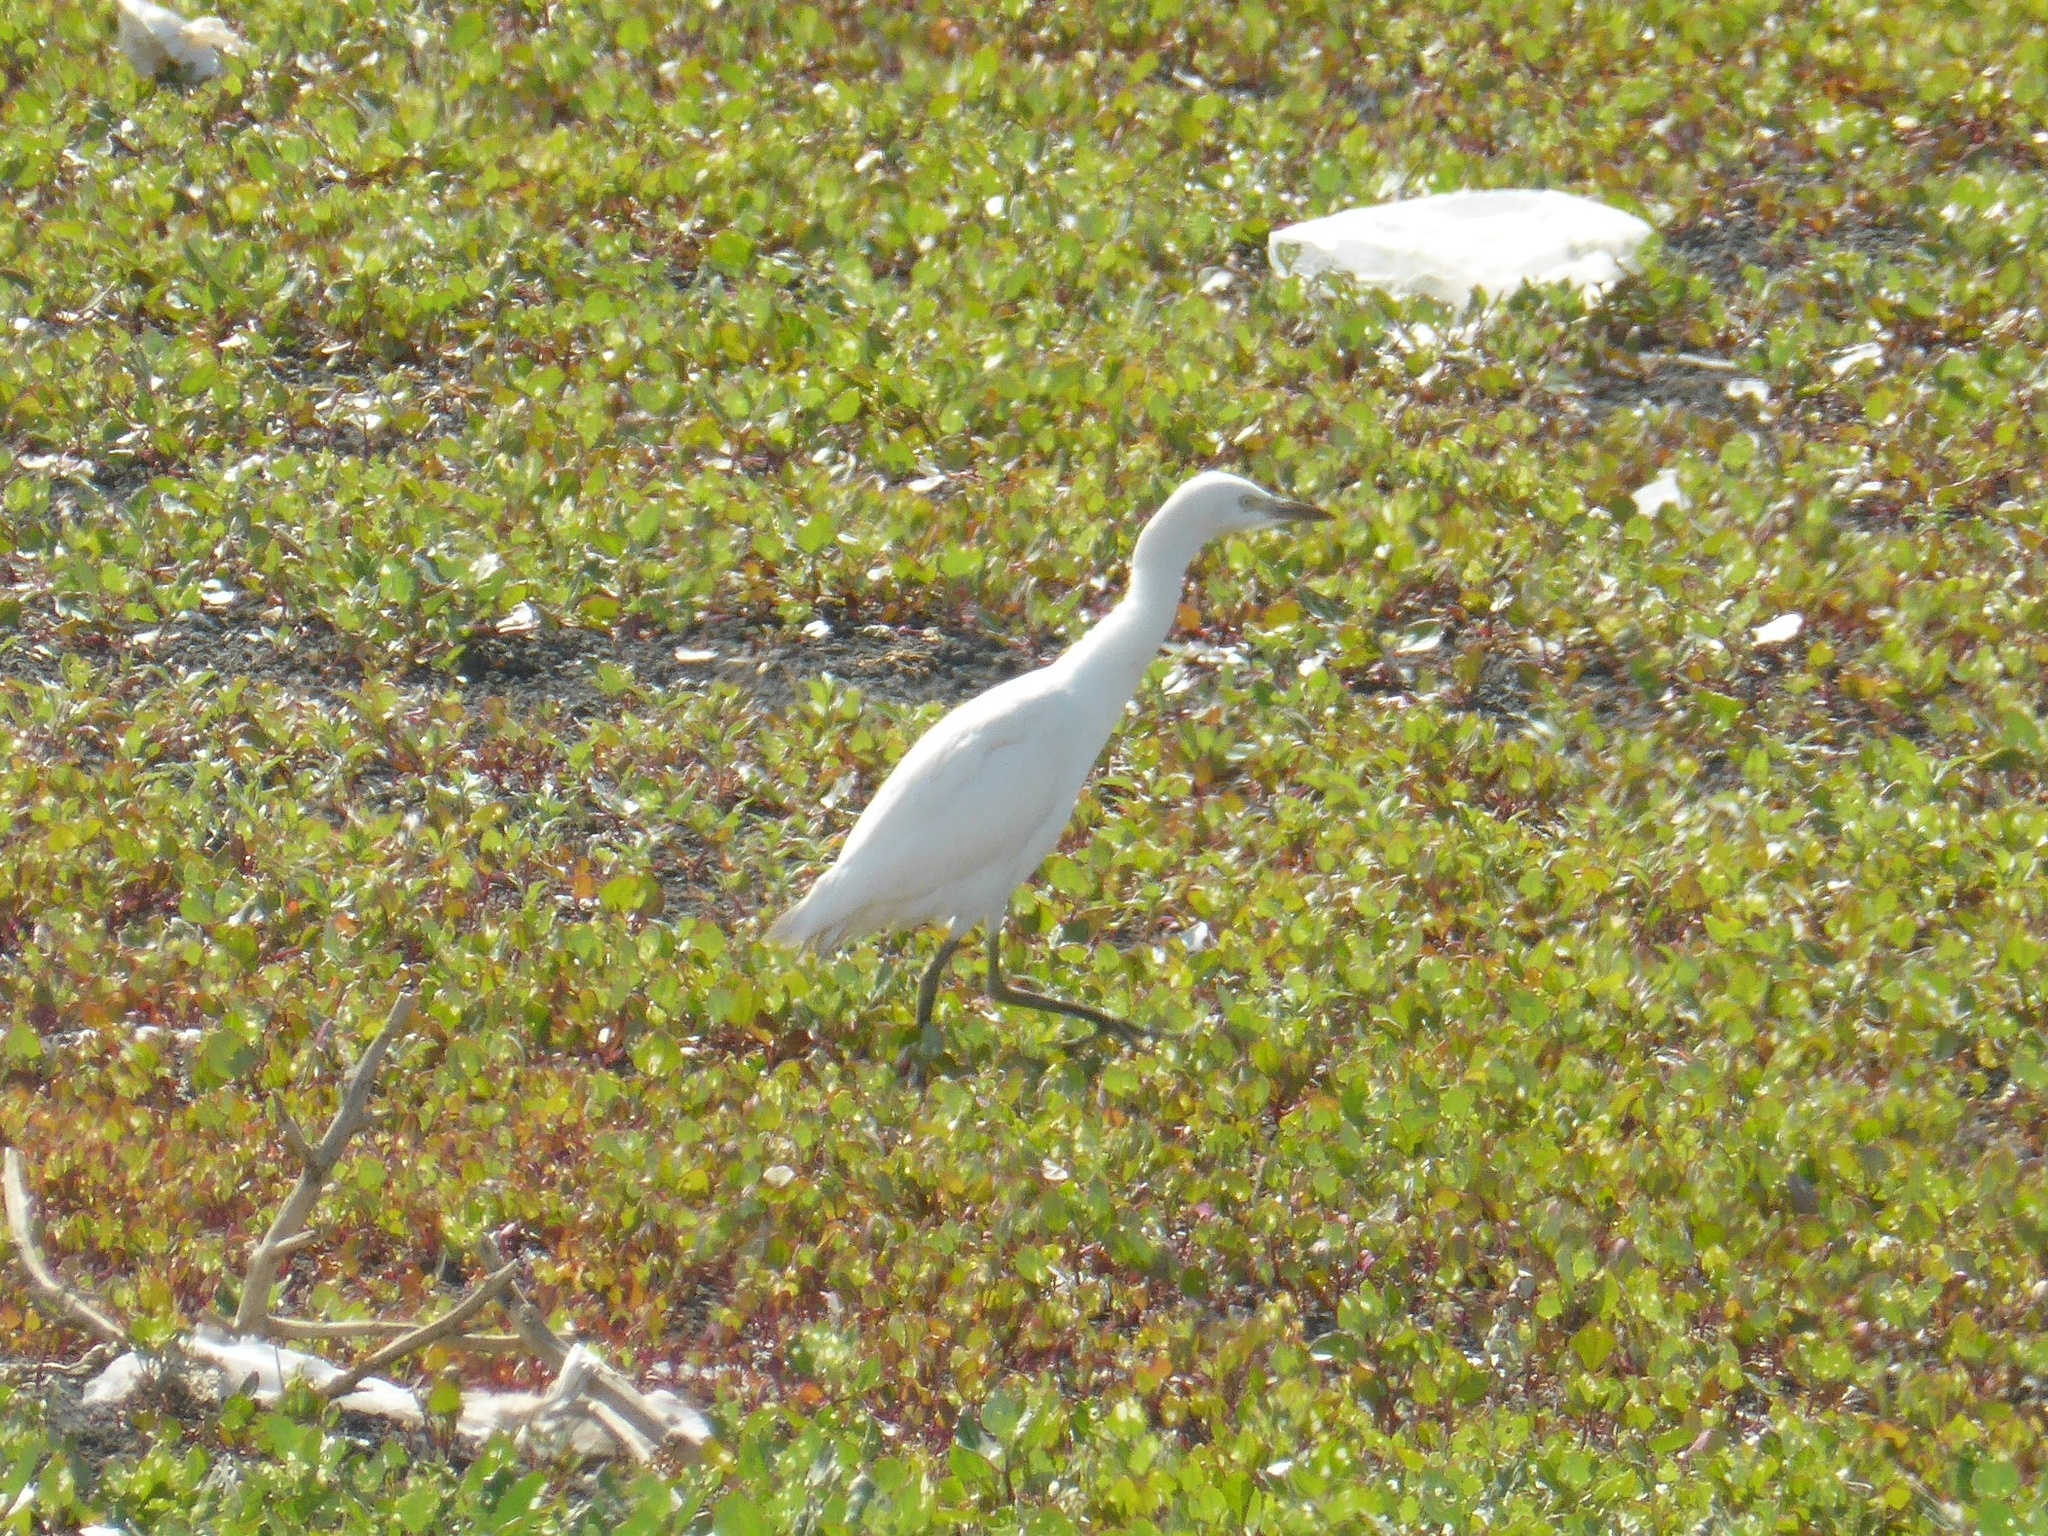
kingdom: Animalia
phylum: Chordata
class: Aves
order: Pelecaniformes
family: Ardeidae
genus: Bubulcus
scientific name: Bubulcus ibis
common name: Cattle egret
